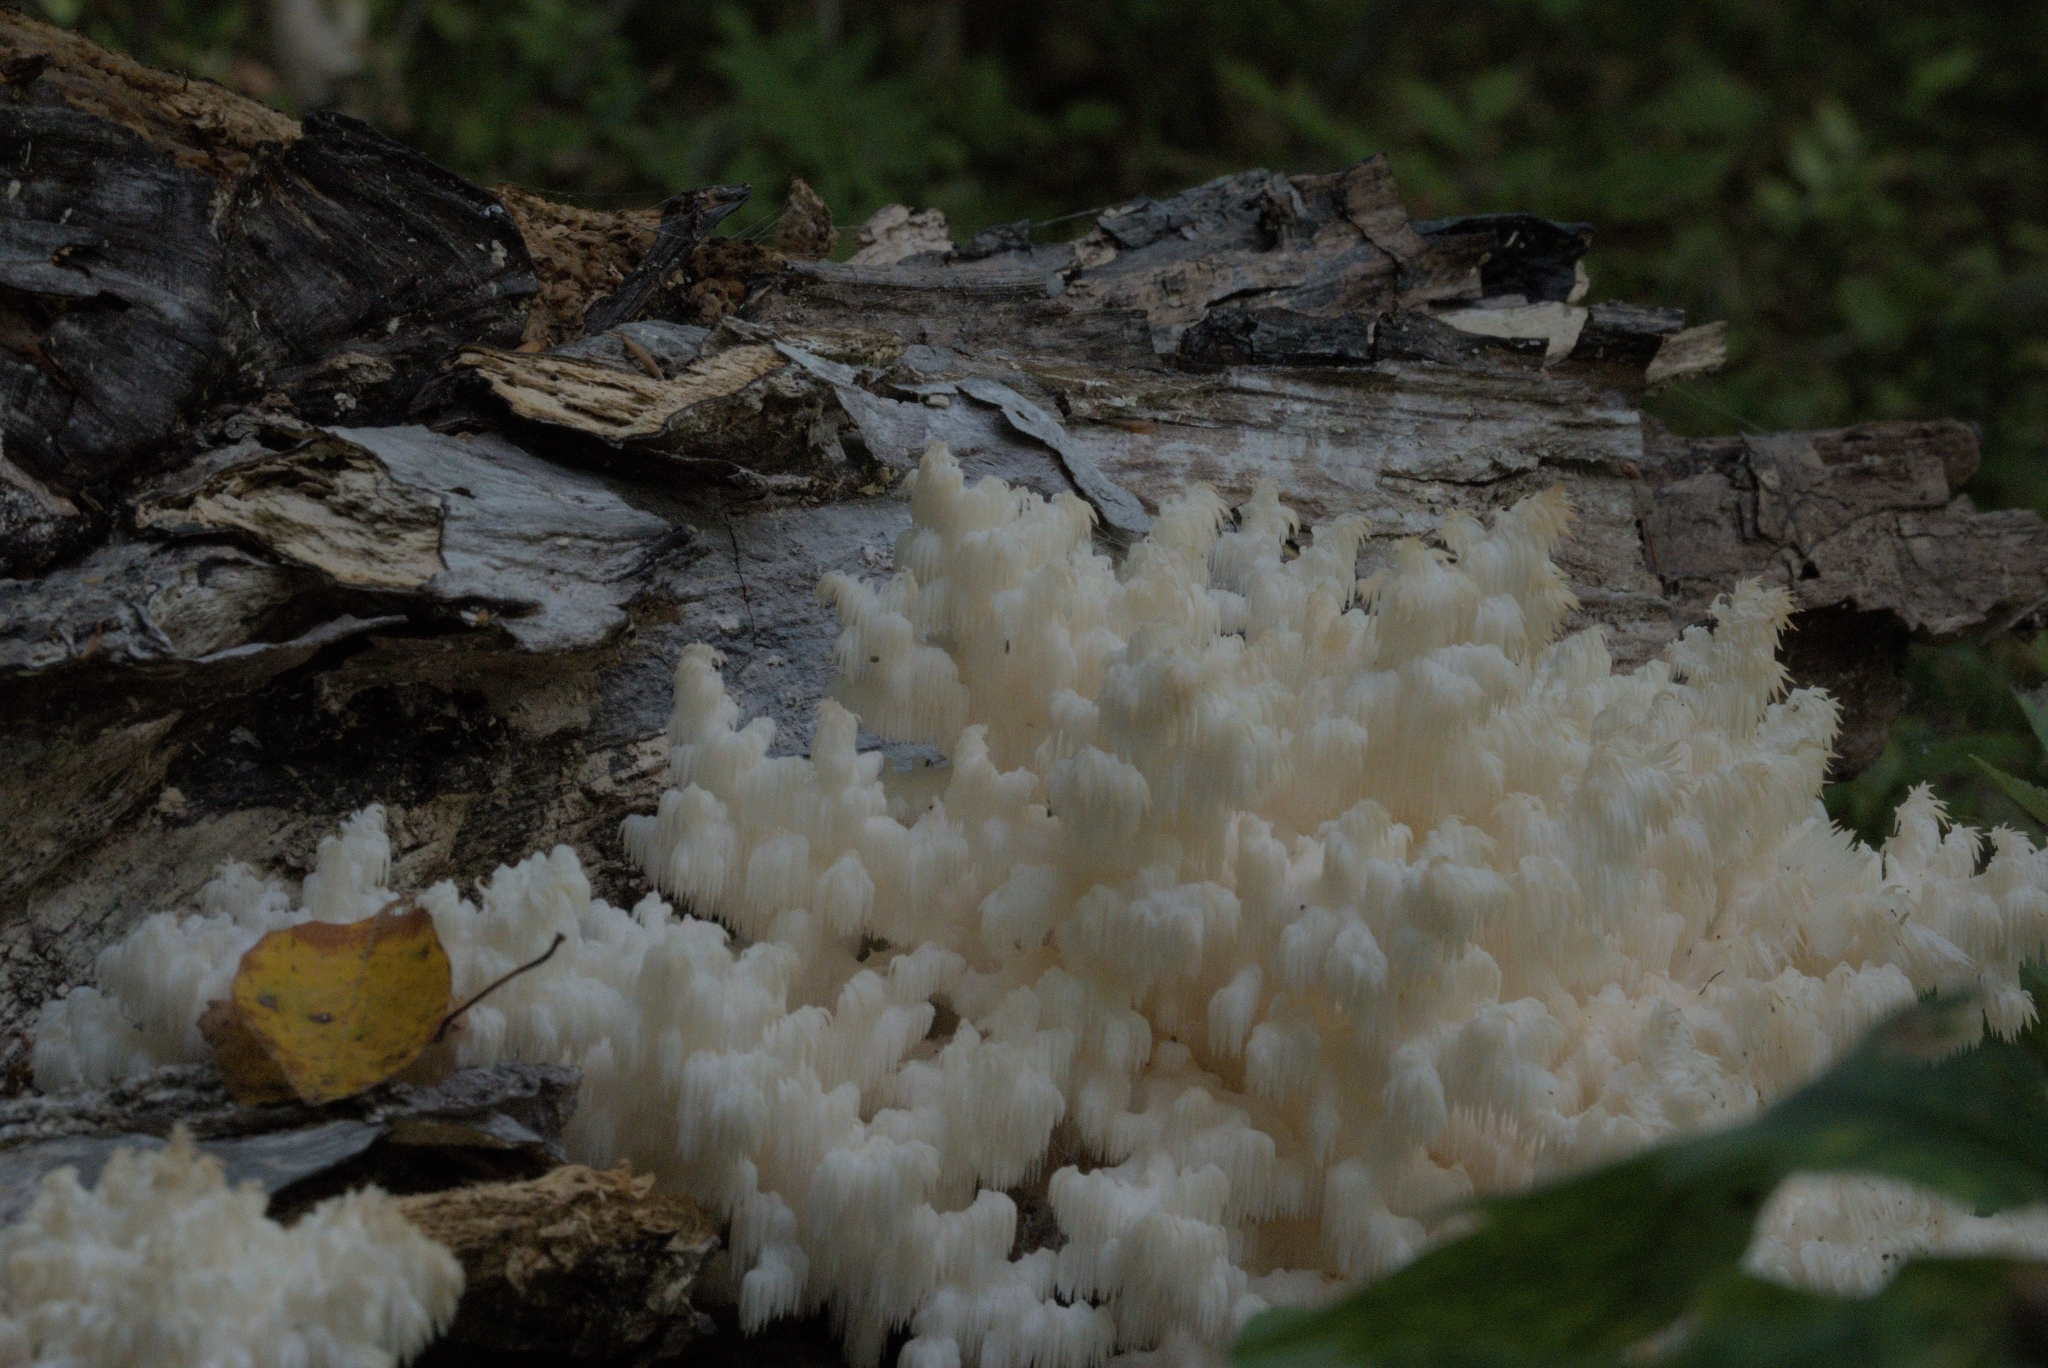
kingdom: Fungi
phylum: Basidiomycota
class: Agaricomycetes
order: Russulales
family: Hericiaceae
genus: Hericium
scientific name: Hericium coralloides
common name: Coral tooth
